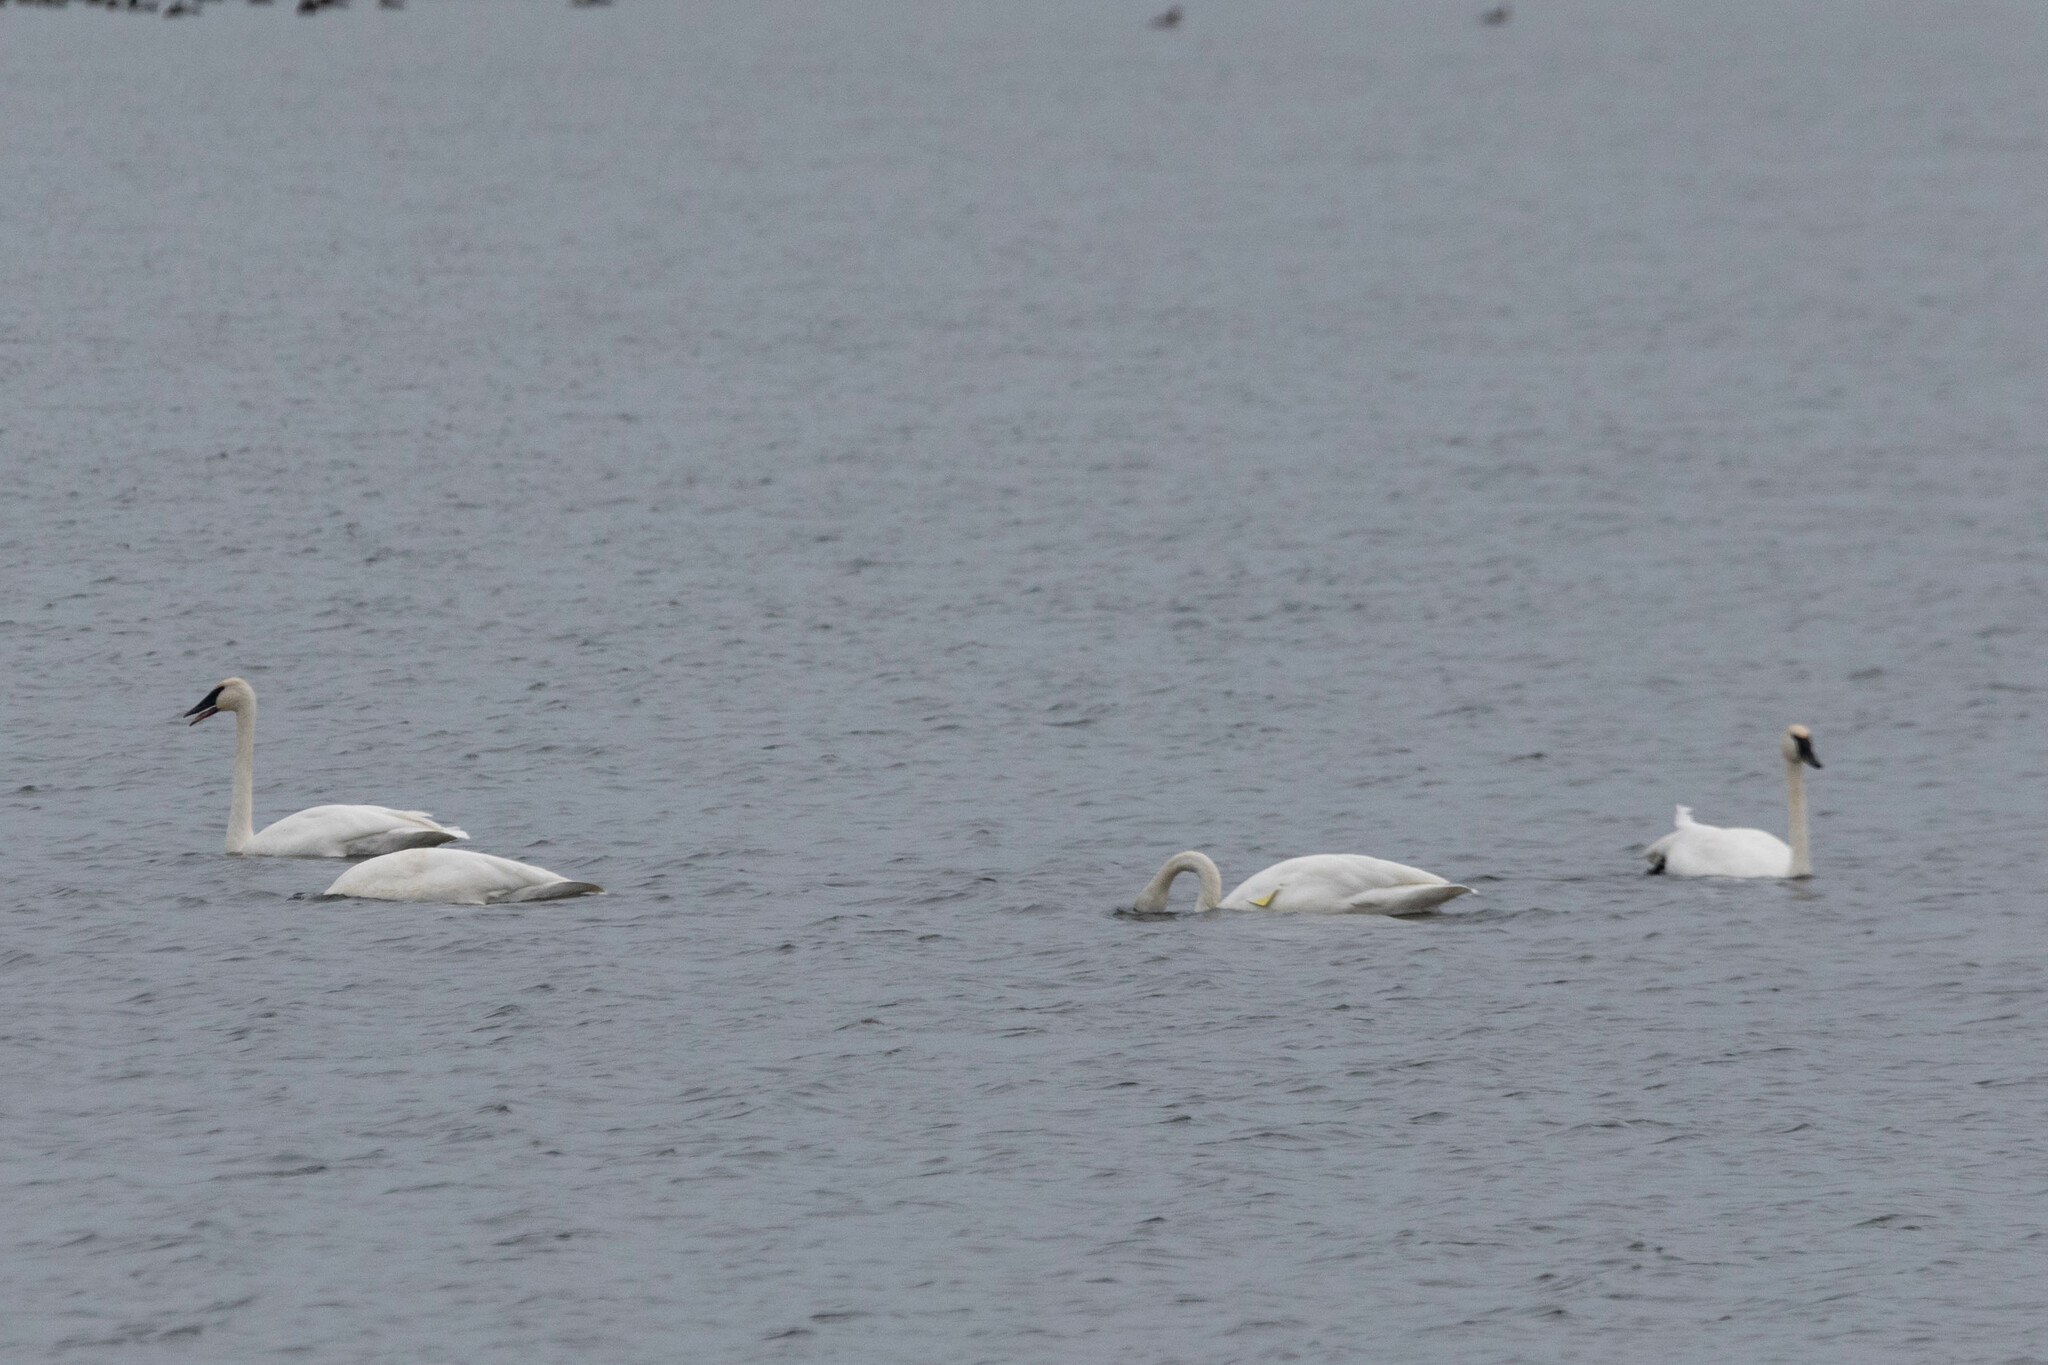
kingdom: Animalia
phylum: Chordata
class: Aves
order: Anseriformes
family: Anatidae
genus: Cygnus
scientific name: Cygnus buccinator
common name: Trumpeter swan
